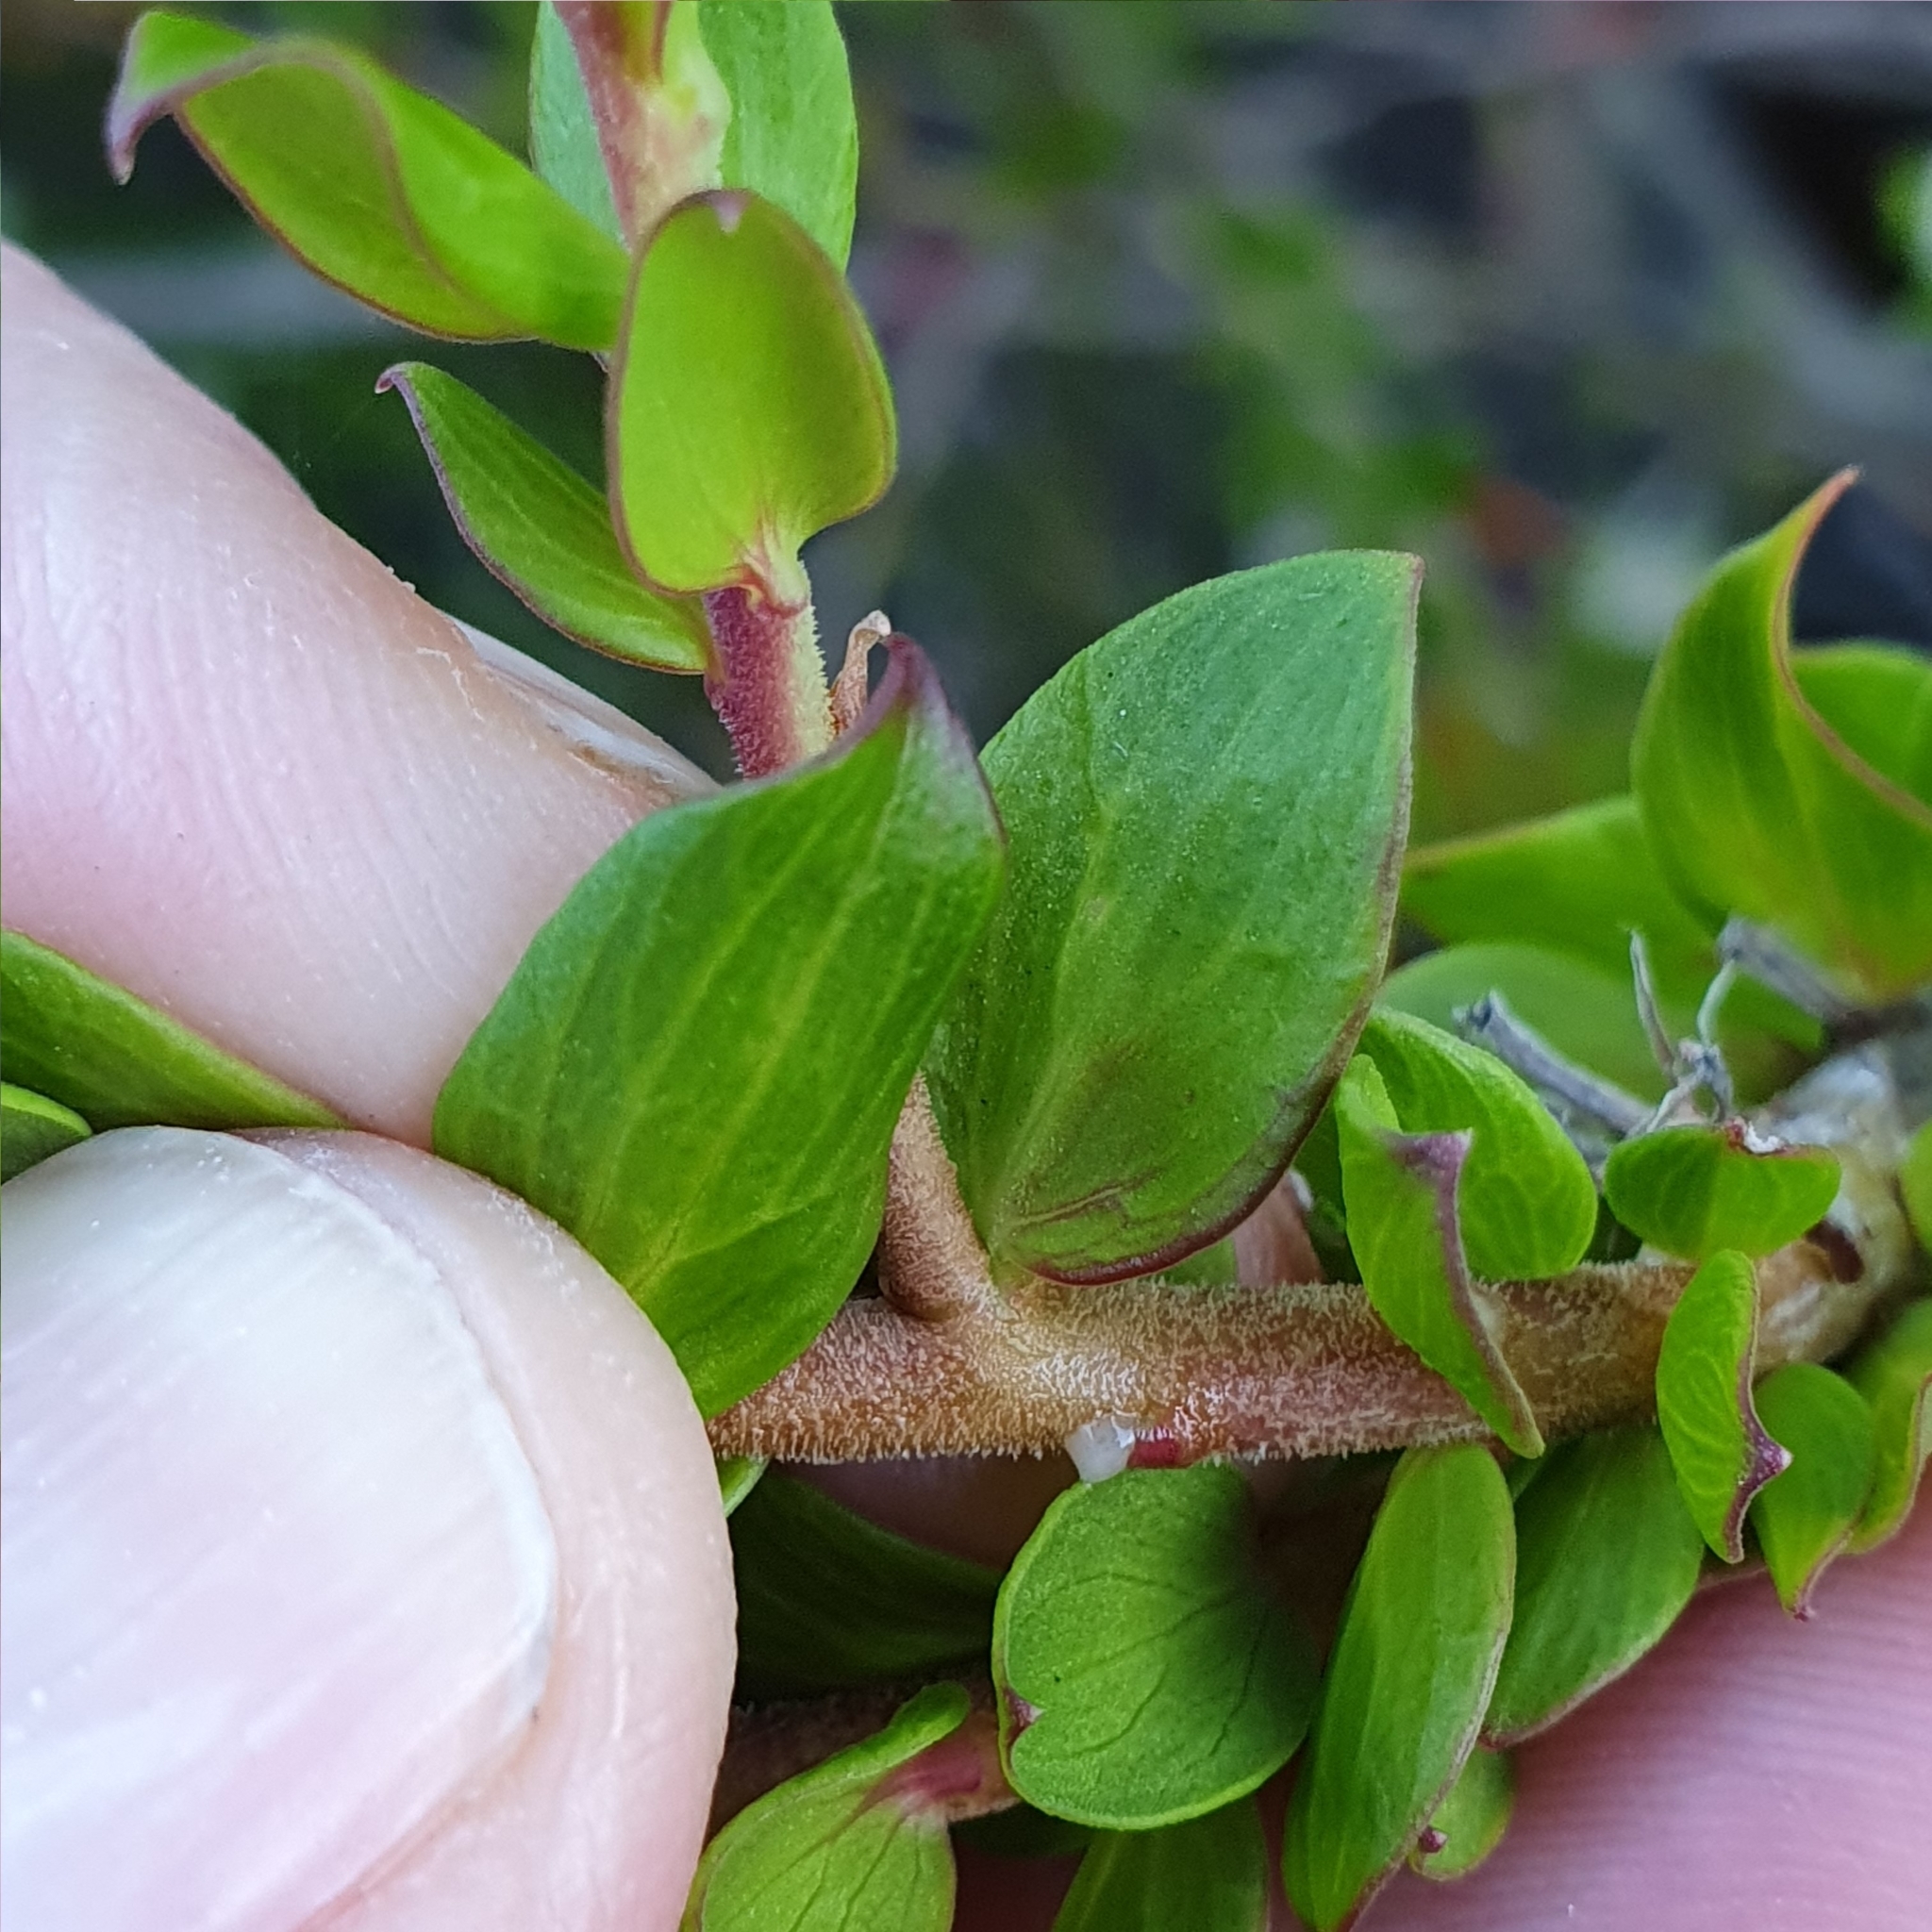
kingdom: Plantae
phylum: Tracheophyta
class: Magnoliopsida
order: Apiales
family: Apiaceae
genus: Platysace
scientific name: Platysace lanceolata
